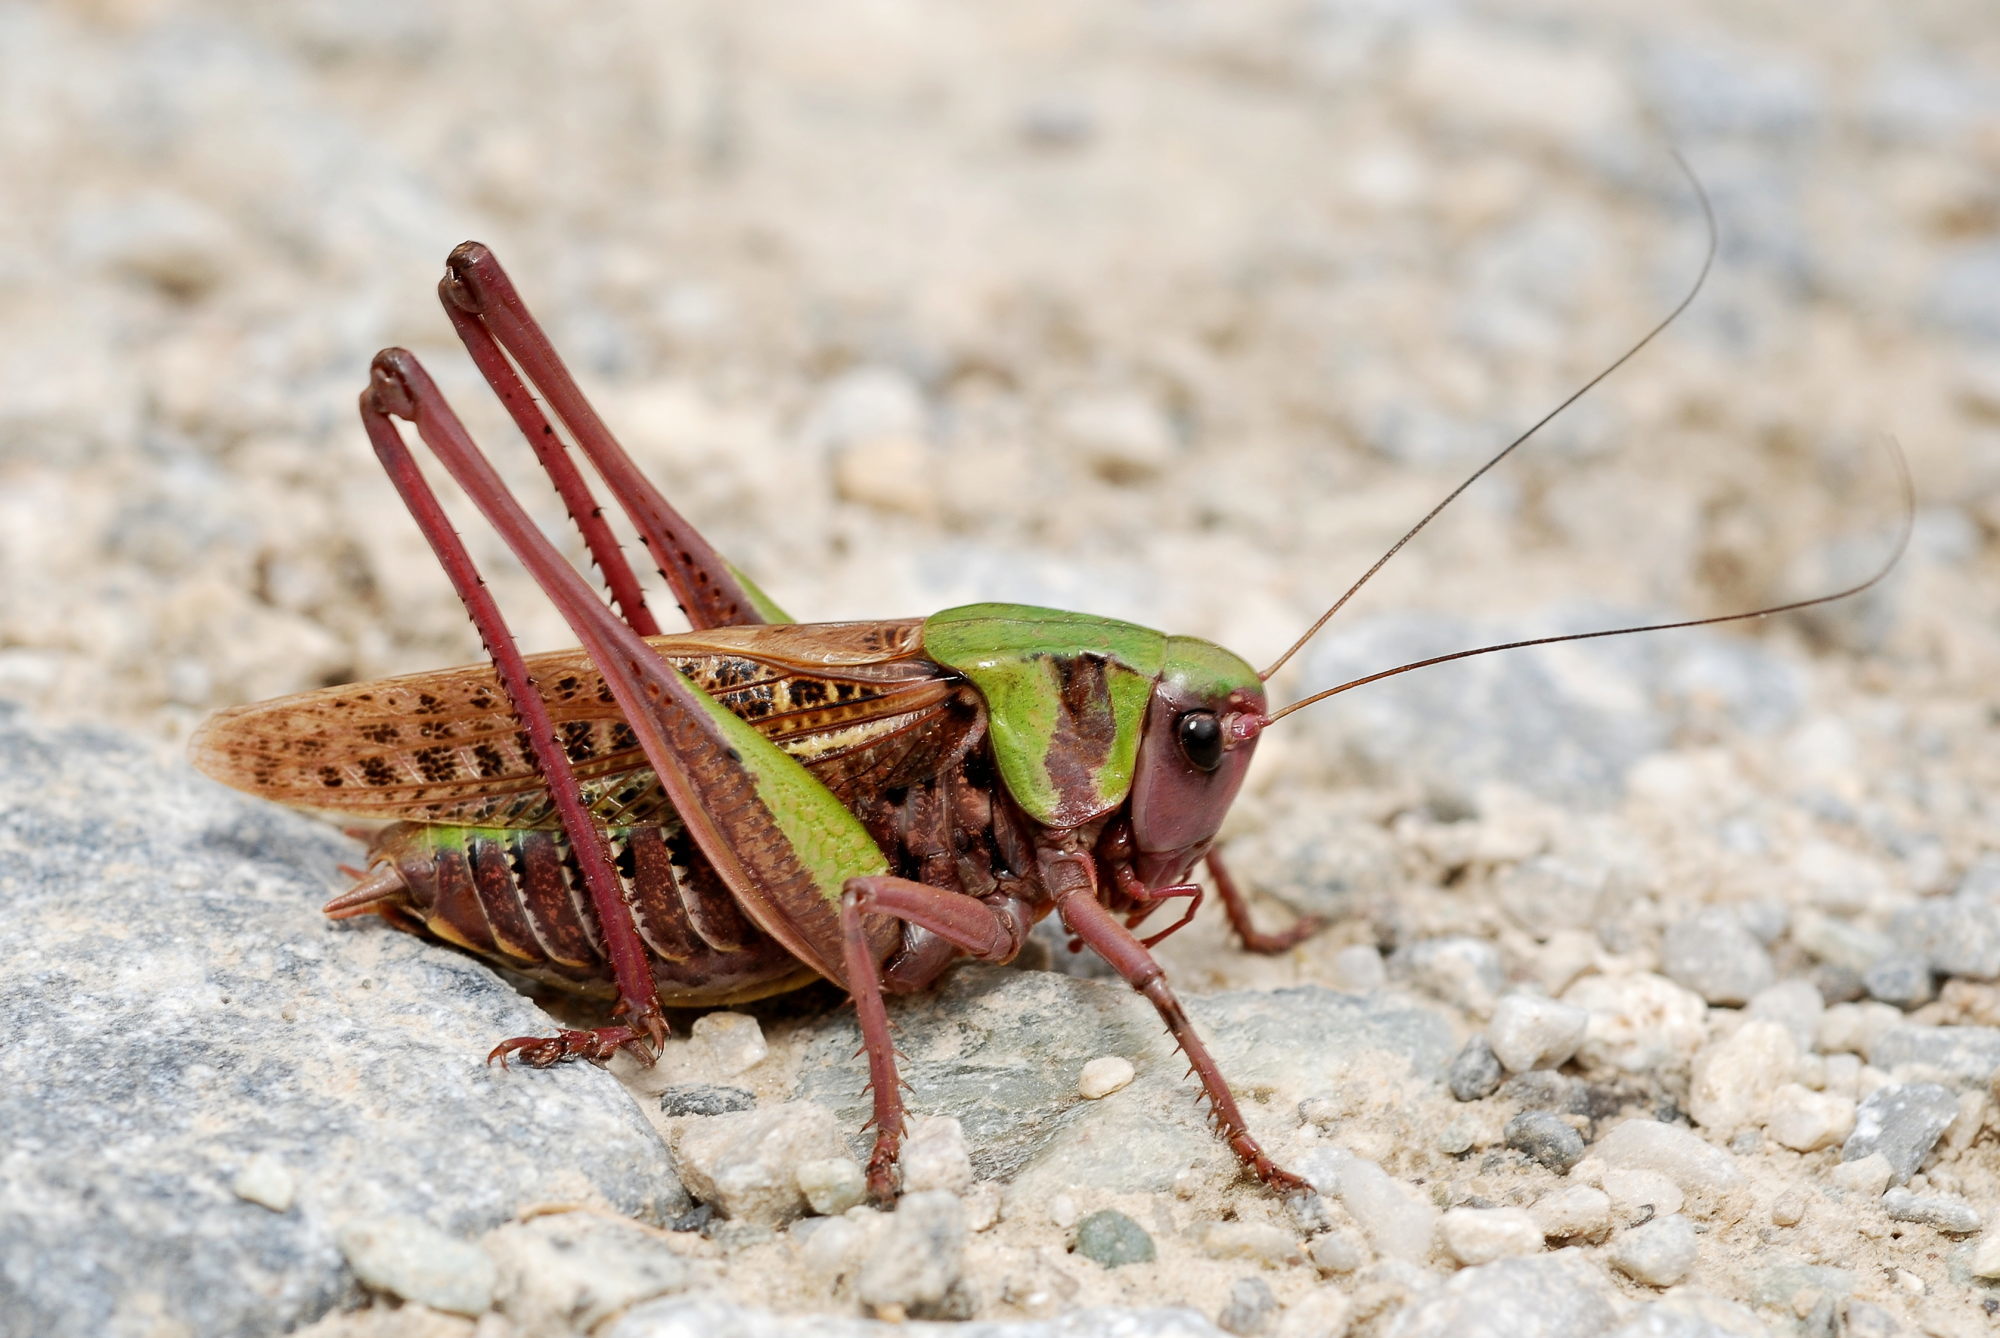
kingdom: Animalia
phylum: Arthropoda
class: Insecta
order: Orthoptera
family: Tettigoniidae
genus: Decticus
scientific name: Decticus verrucivorus
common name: Wart-biter
